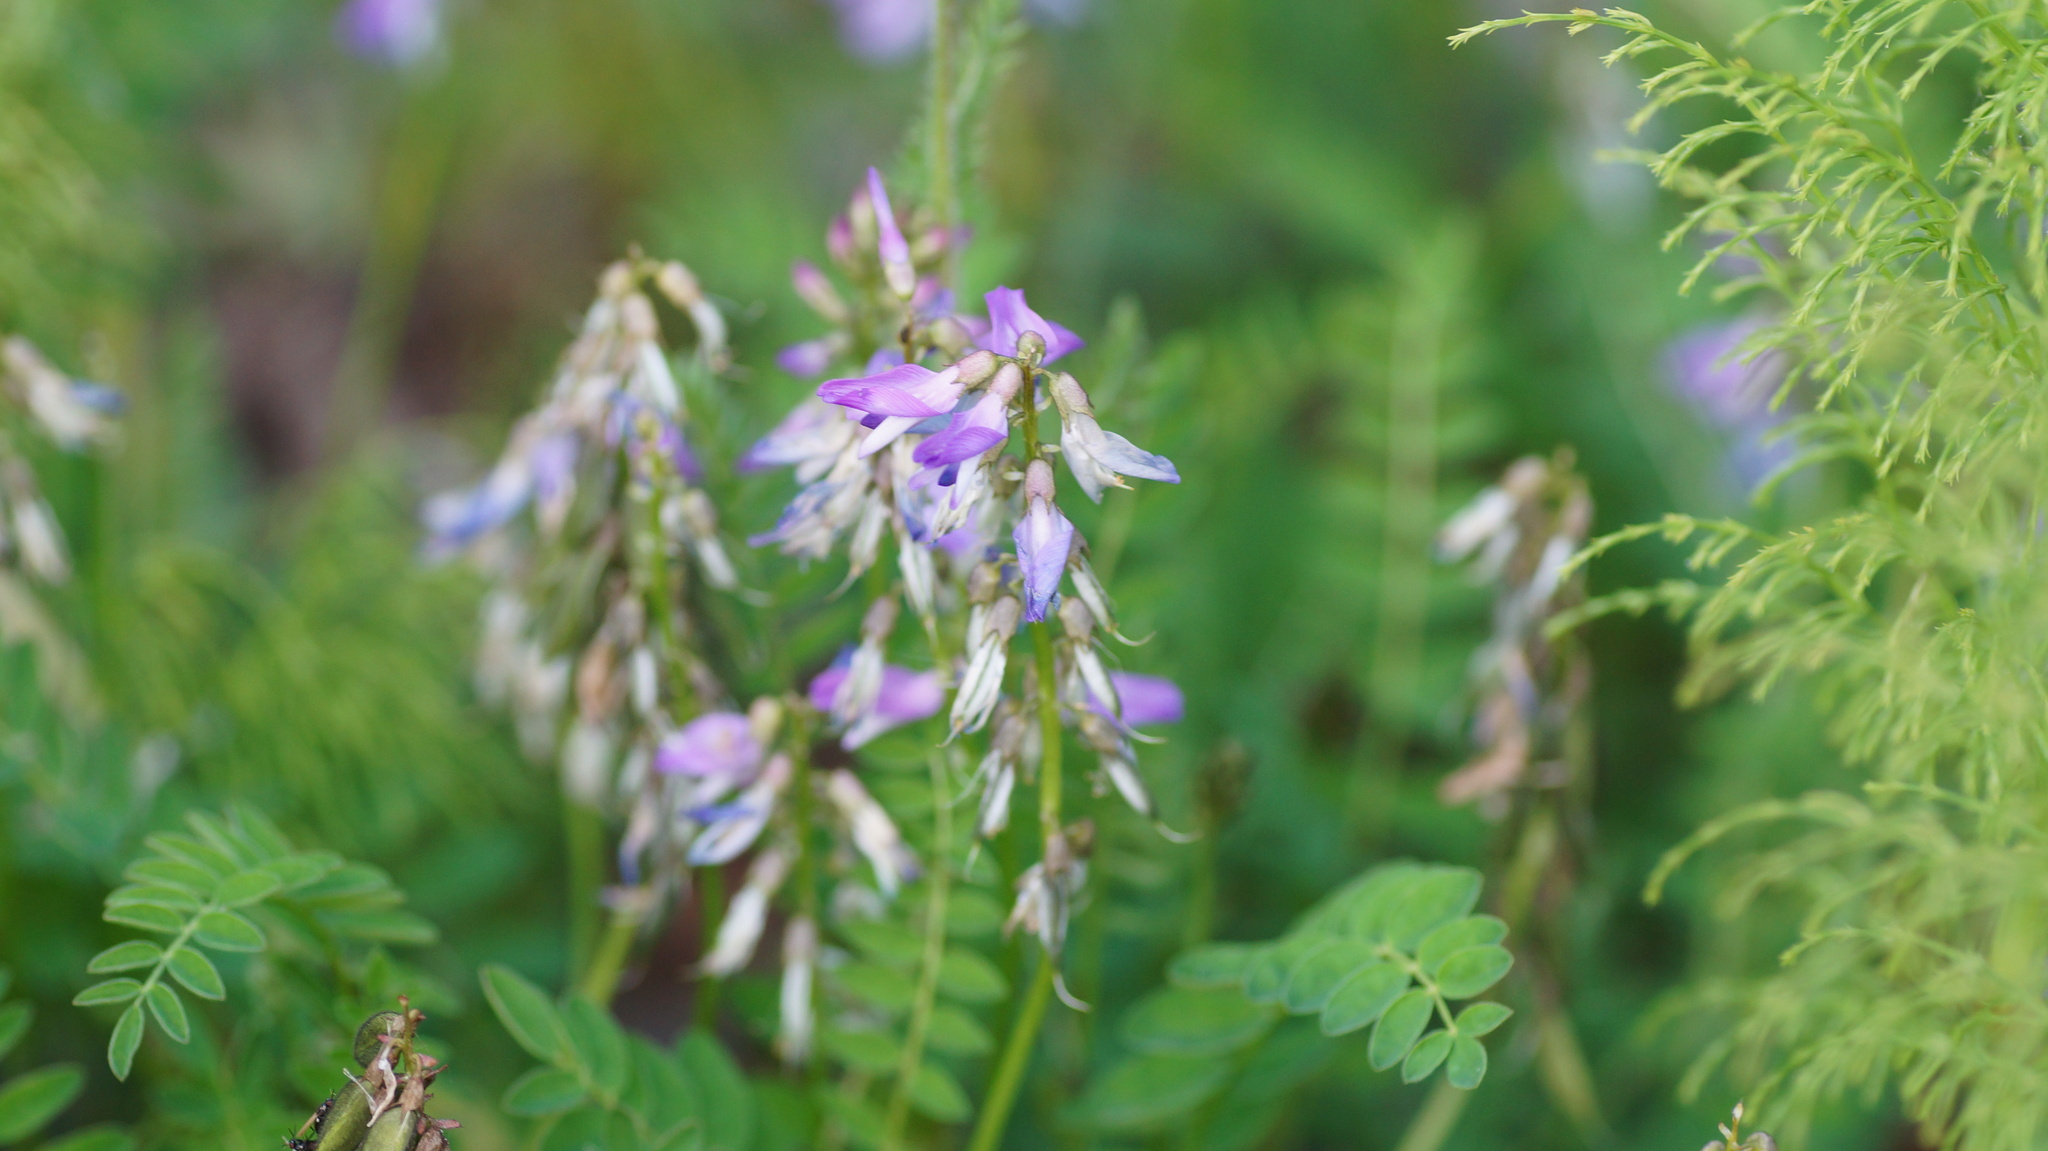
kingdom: Plantae
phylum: Tracheophyta
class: Magnoliopsida
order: Fabales
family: Fabaceae
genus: Astragalus
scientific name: Astragalus alpinus
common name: Alpine milk-vetch
